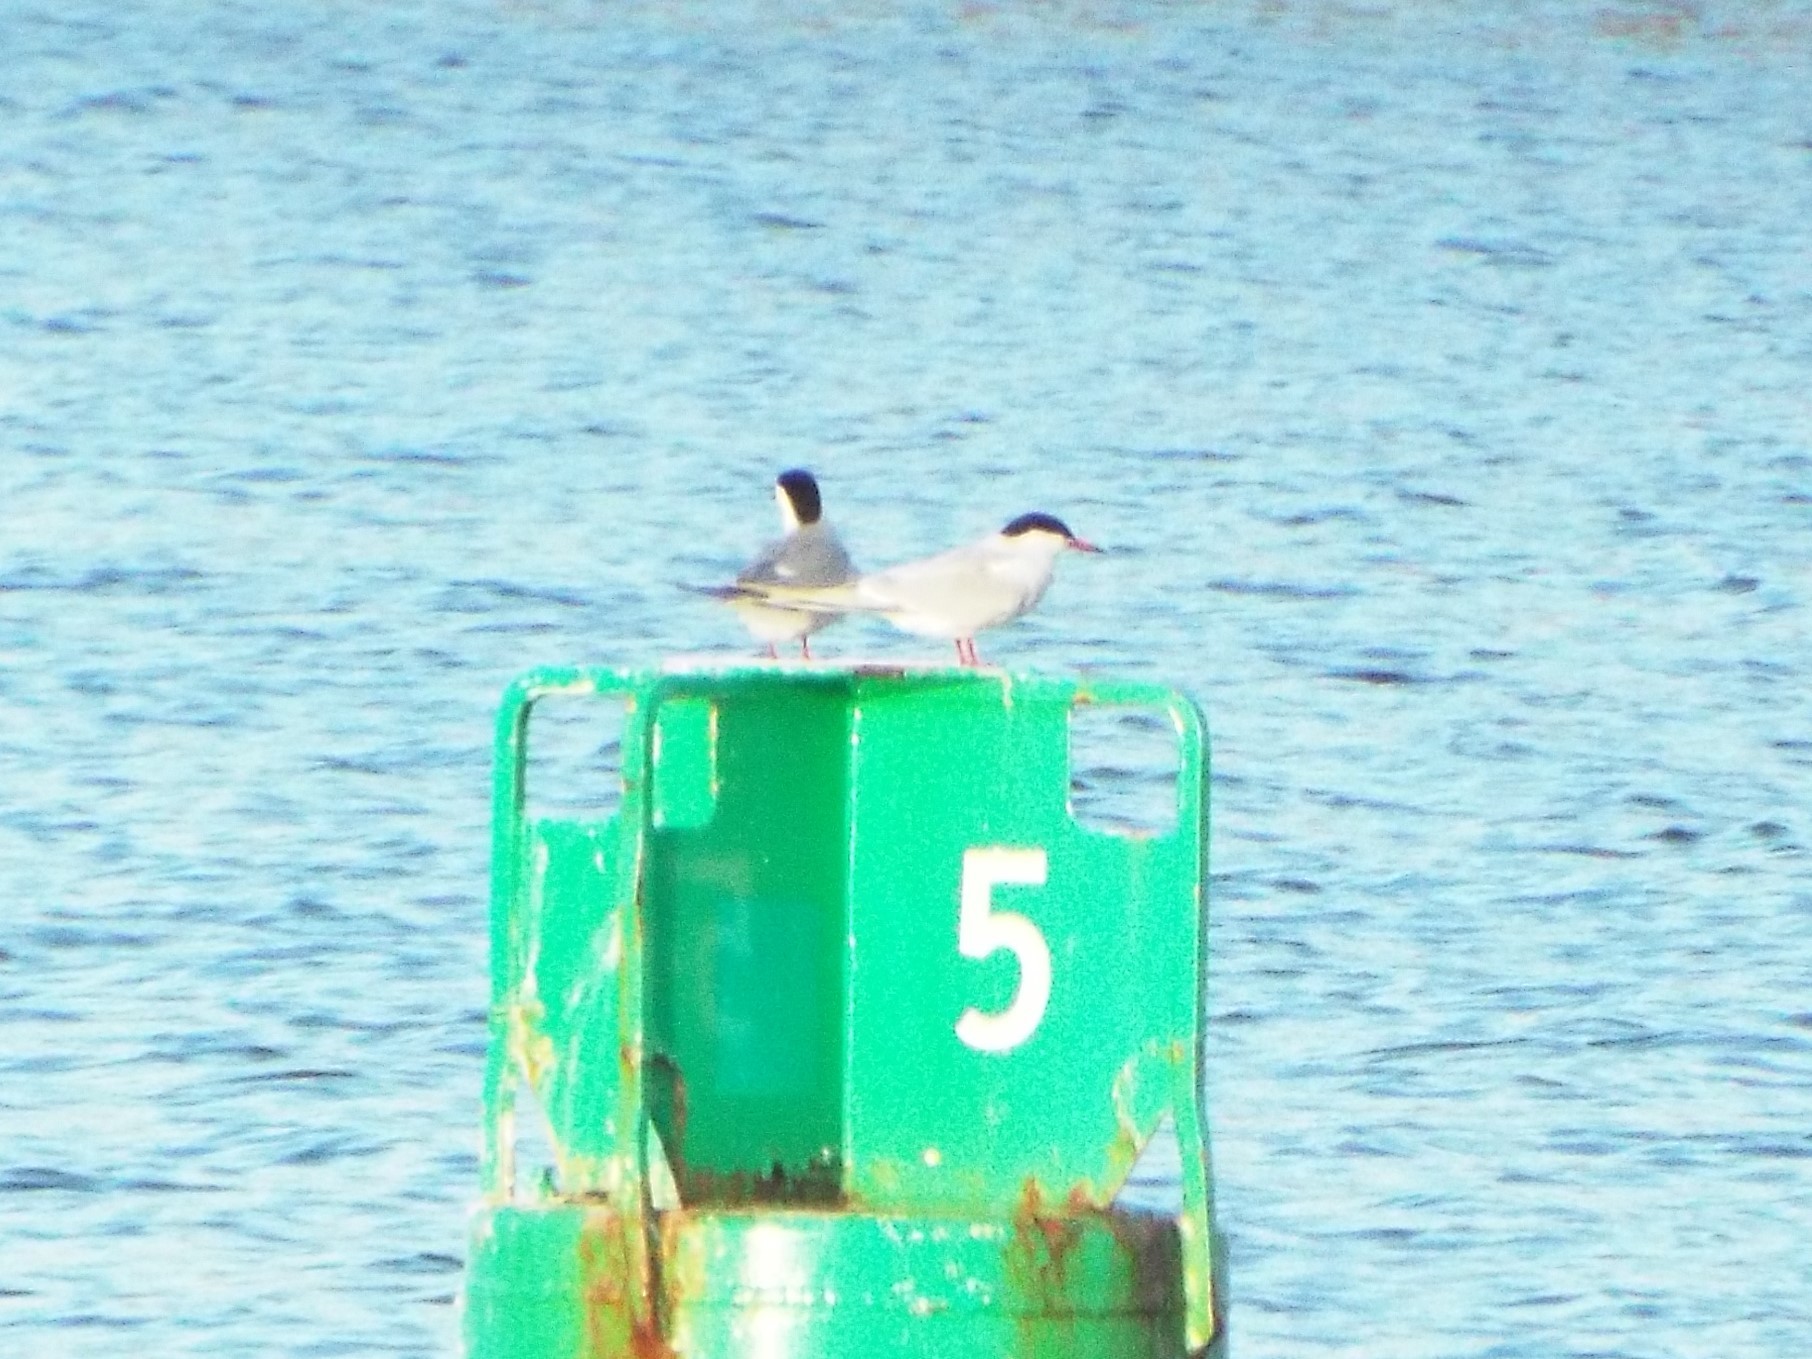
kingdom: Animalia
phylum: Chordata
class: Aves
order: Charadriiformes
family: Laridae
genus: Sterna
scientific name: Sterna hirundo
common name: Common tern
